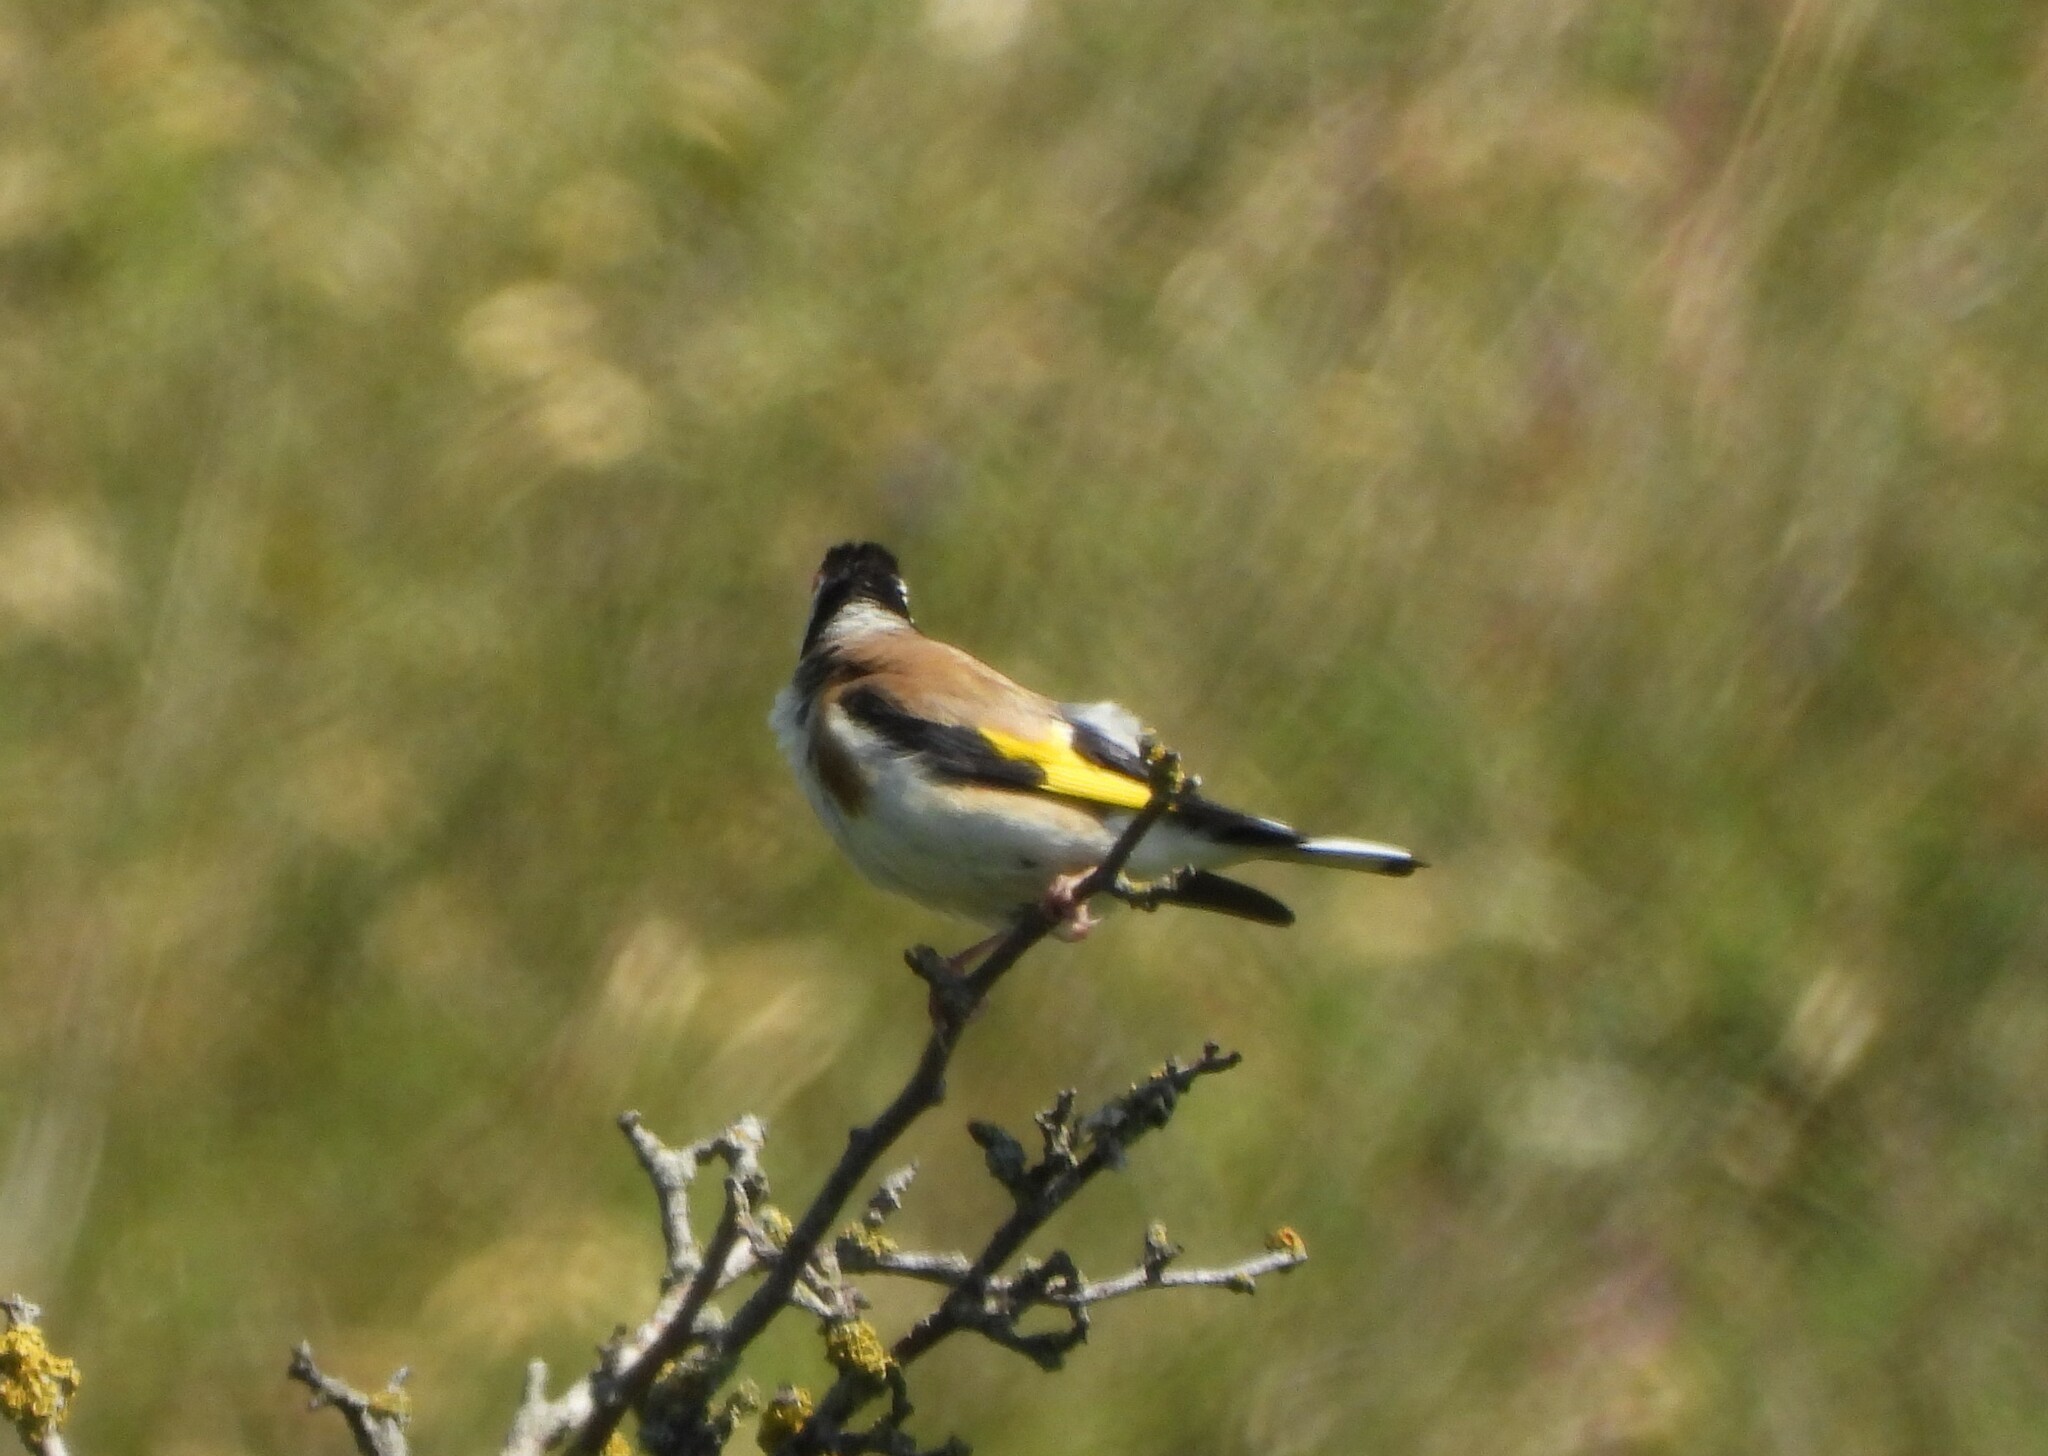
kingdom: Animalia
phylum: Chordata
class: Aves
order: Passeriformes
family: Fringillidae
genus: Carduelis
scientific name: Carduelis carduelis
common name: European goldfinch
